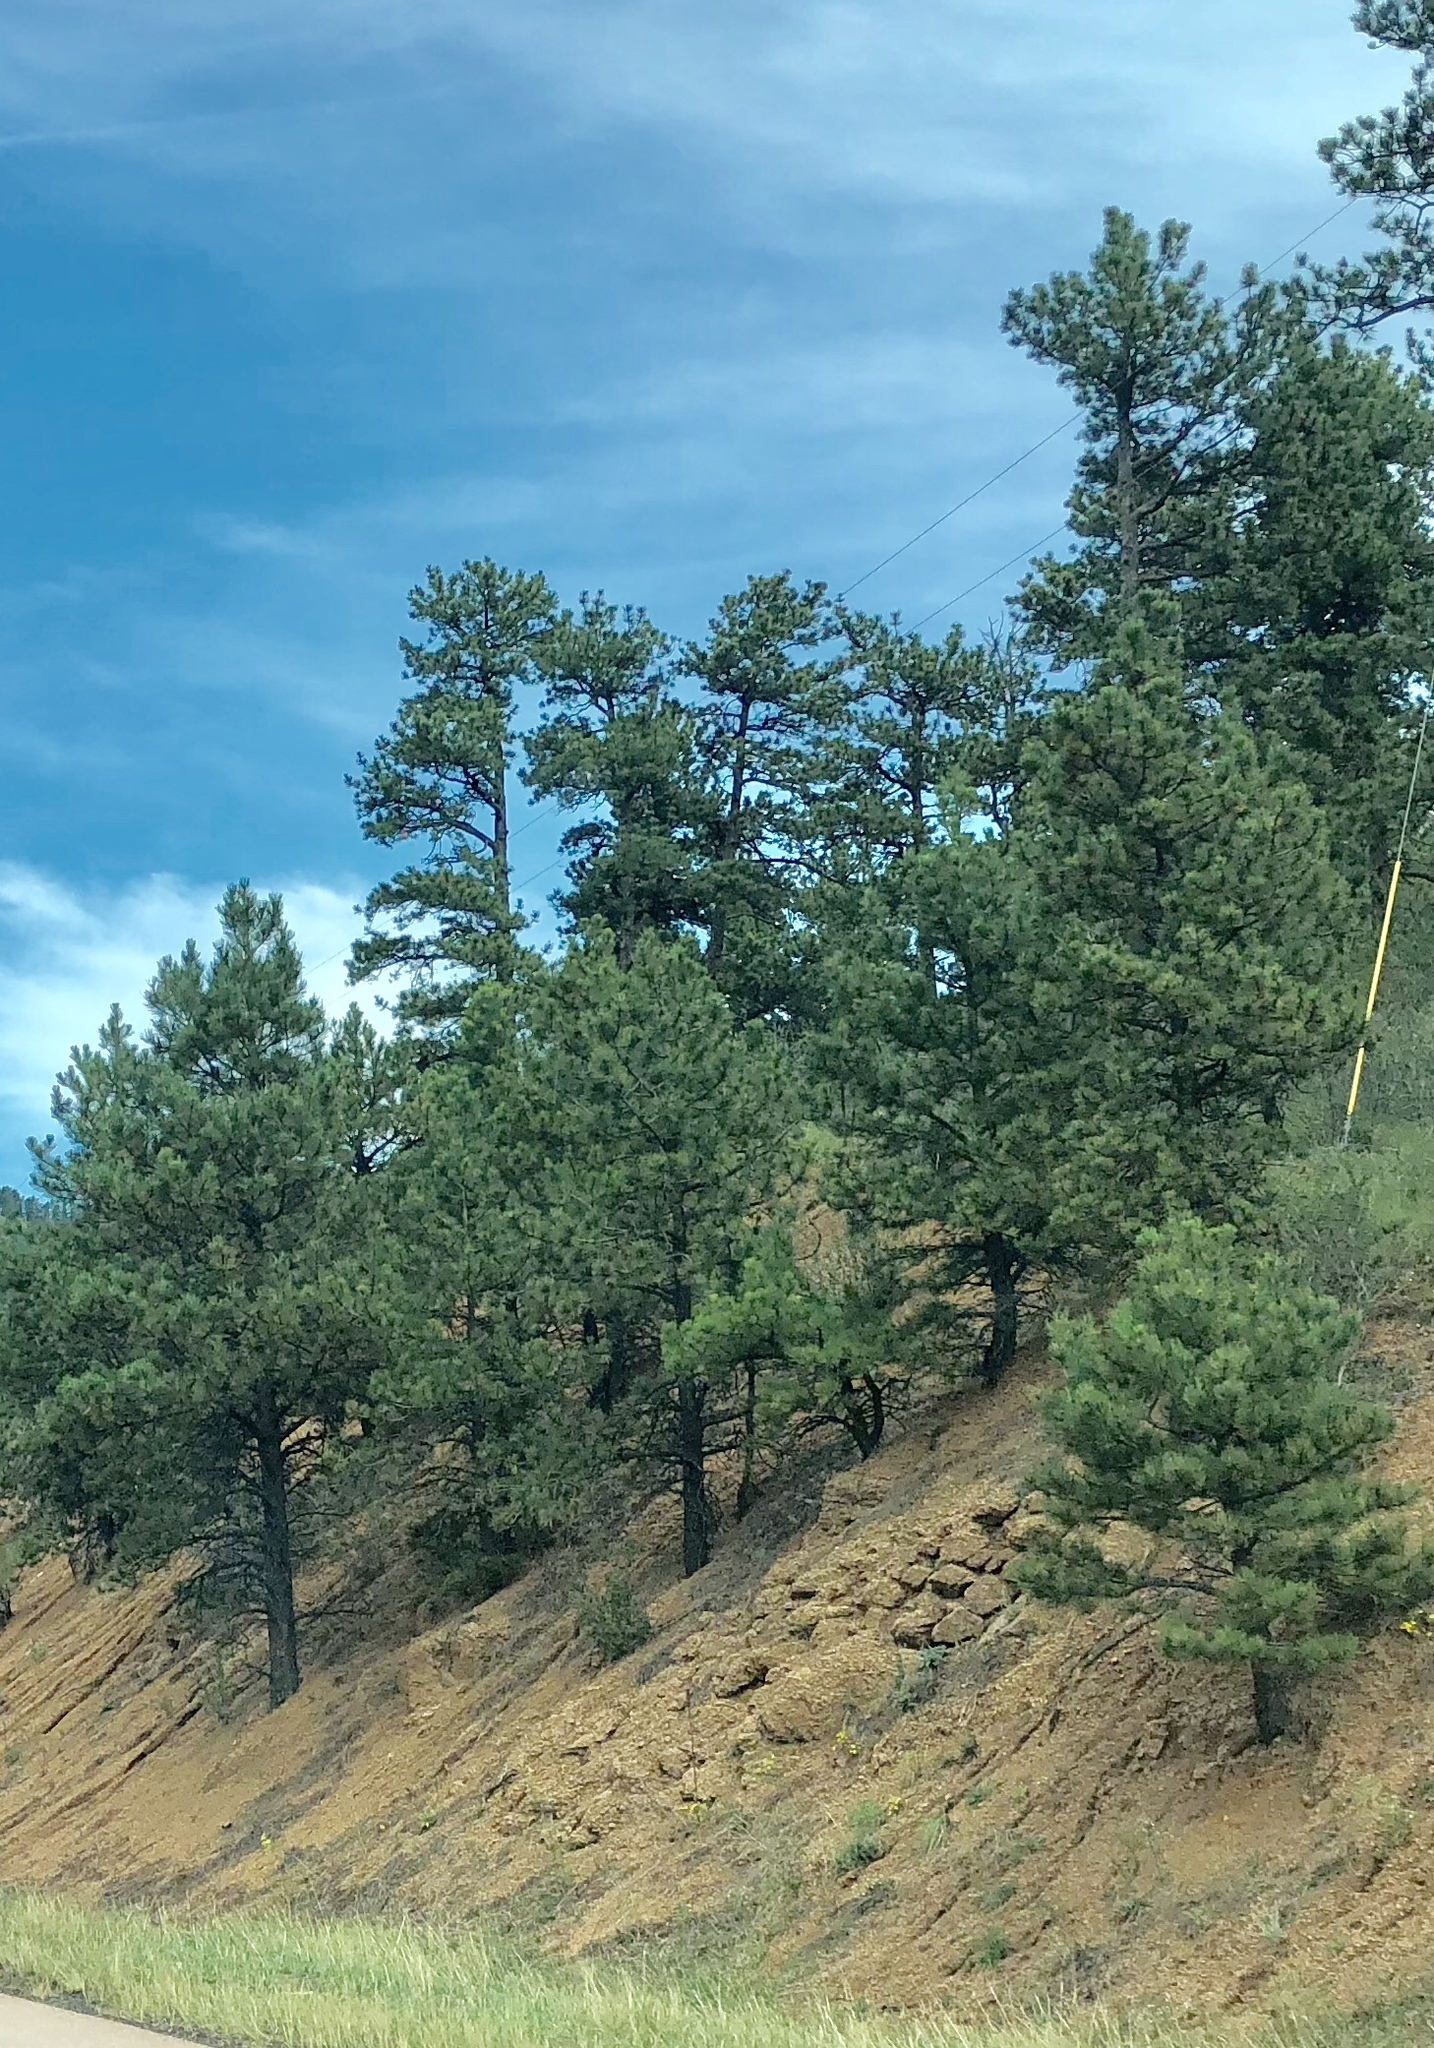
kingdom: Plantae
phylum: Tracheophyta
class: Pinopsida
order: Pinales
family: Pinaceae
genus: Pinus
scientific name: Pinus ponderosa
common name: Western yellow-pine
